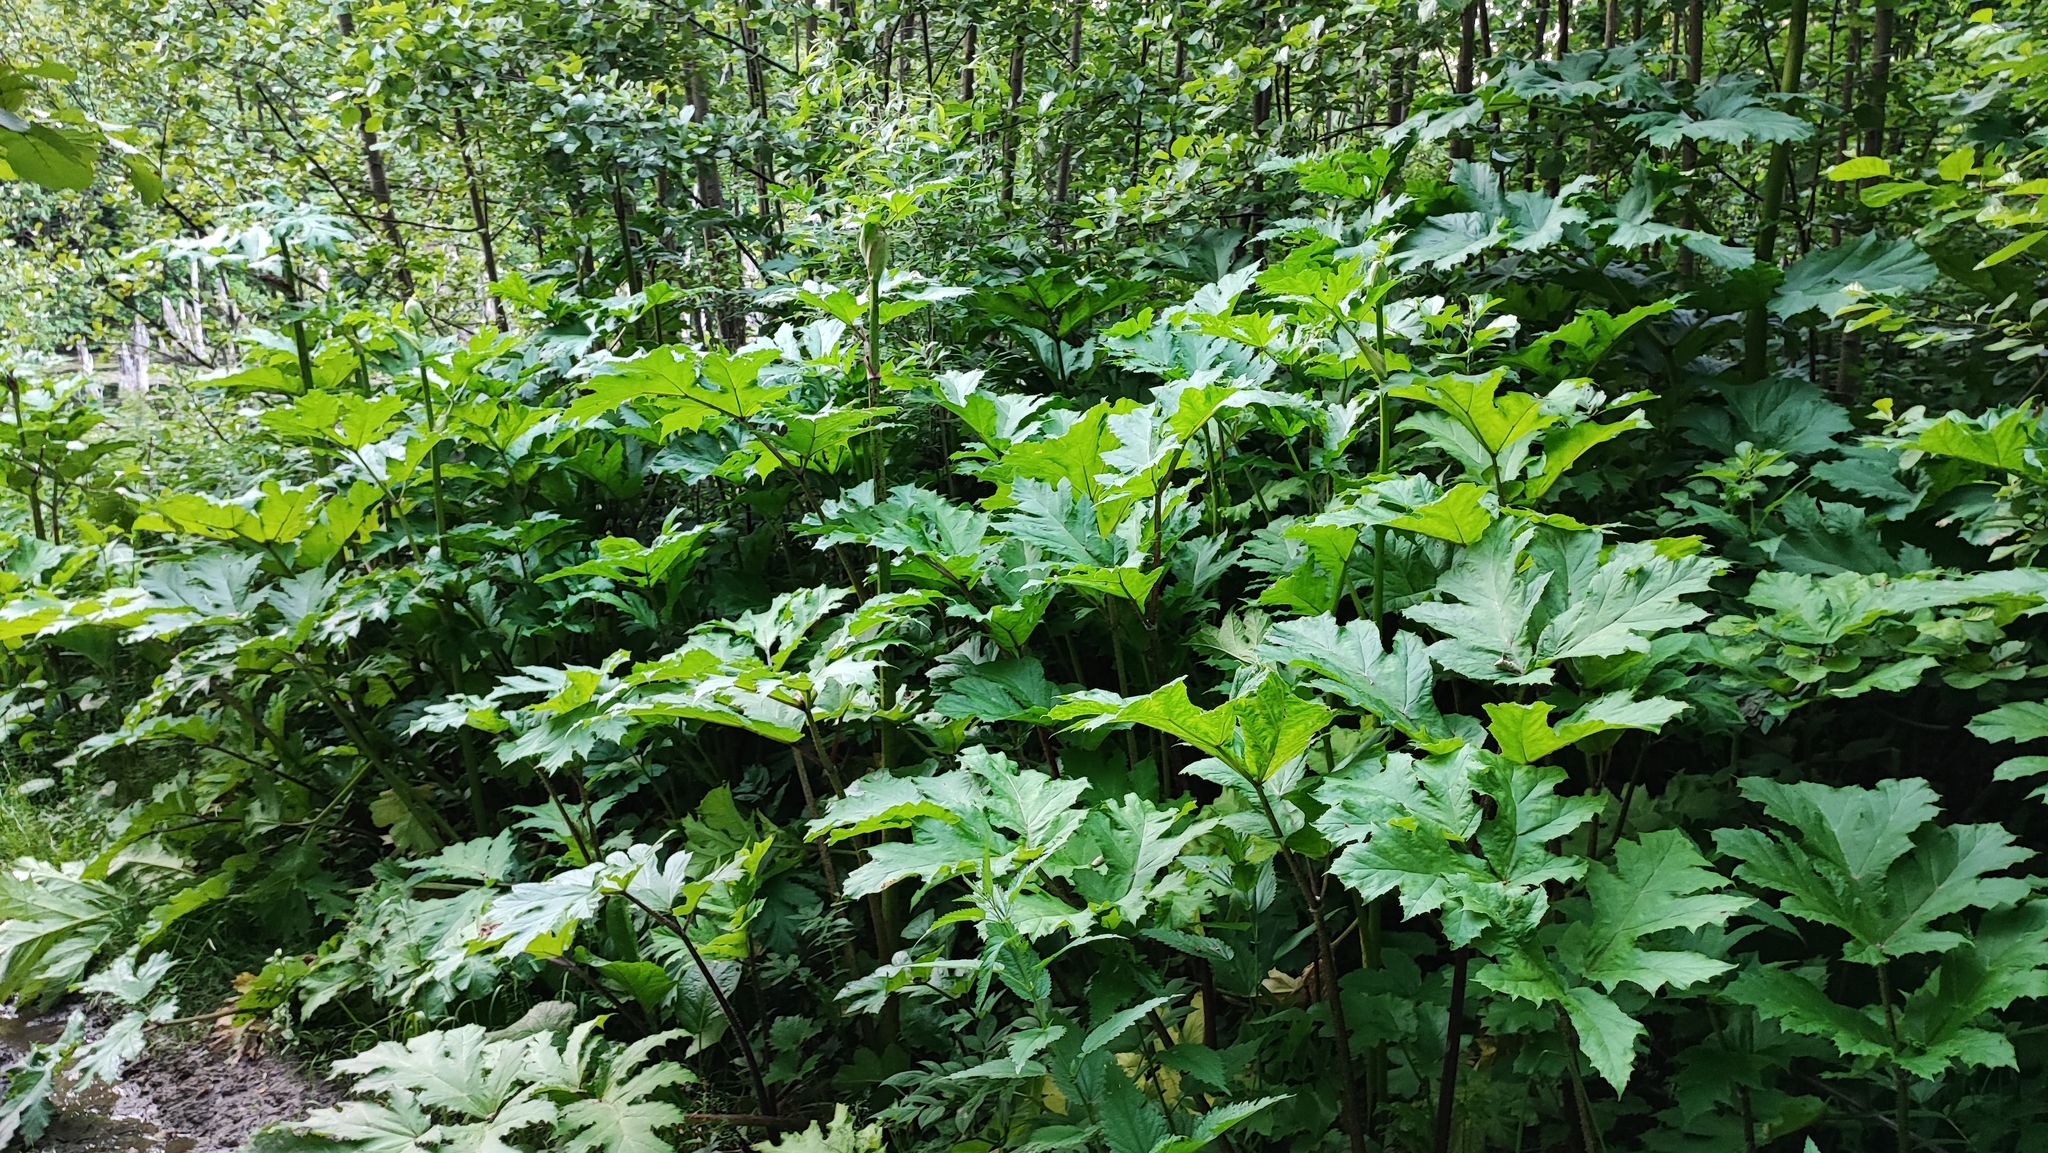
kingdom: Plantae
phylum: Tracheophyta
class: Magnoliopsida
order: Apiales
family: Apiaceae
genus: Heracleum
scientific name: Heracleum sosnowskyi
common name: Sosnowsky's hogweed
